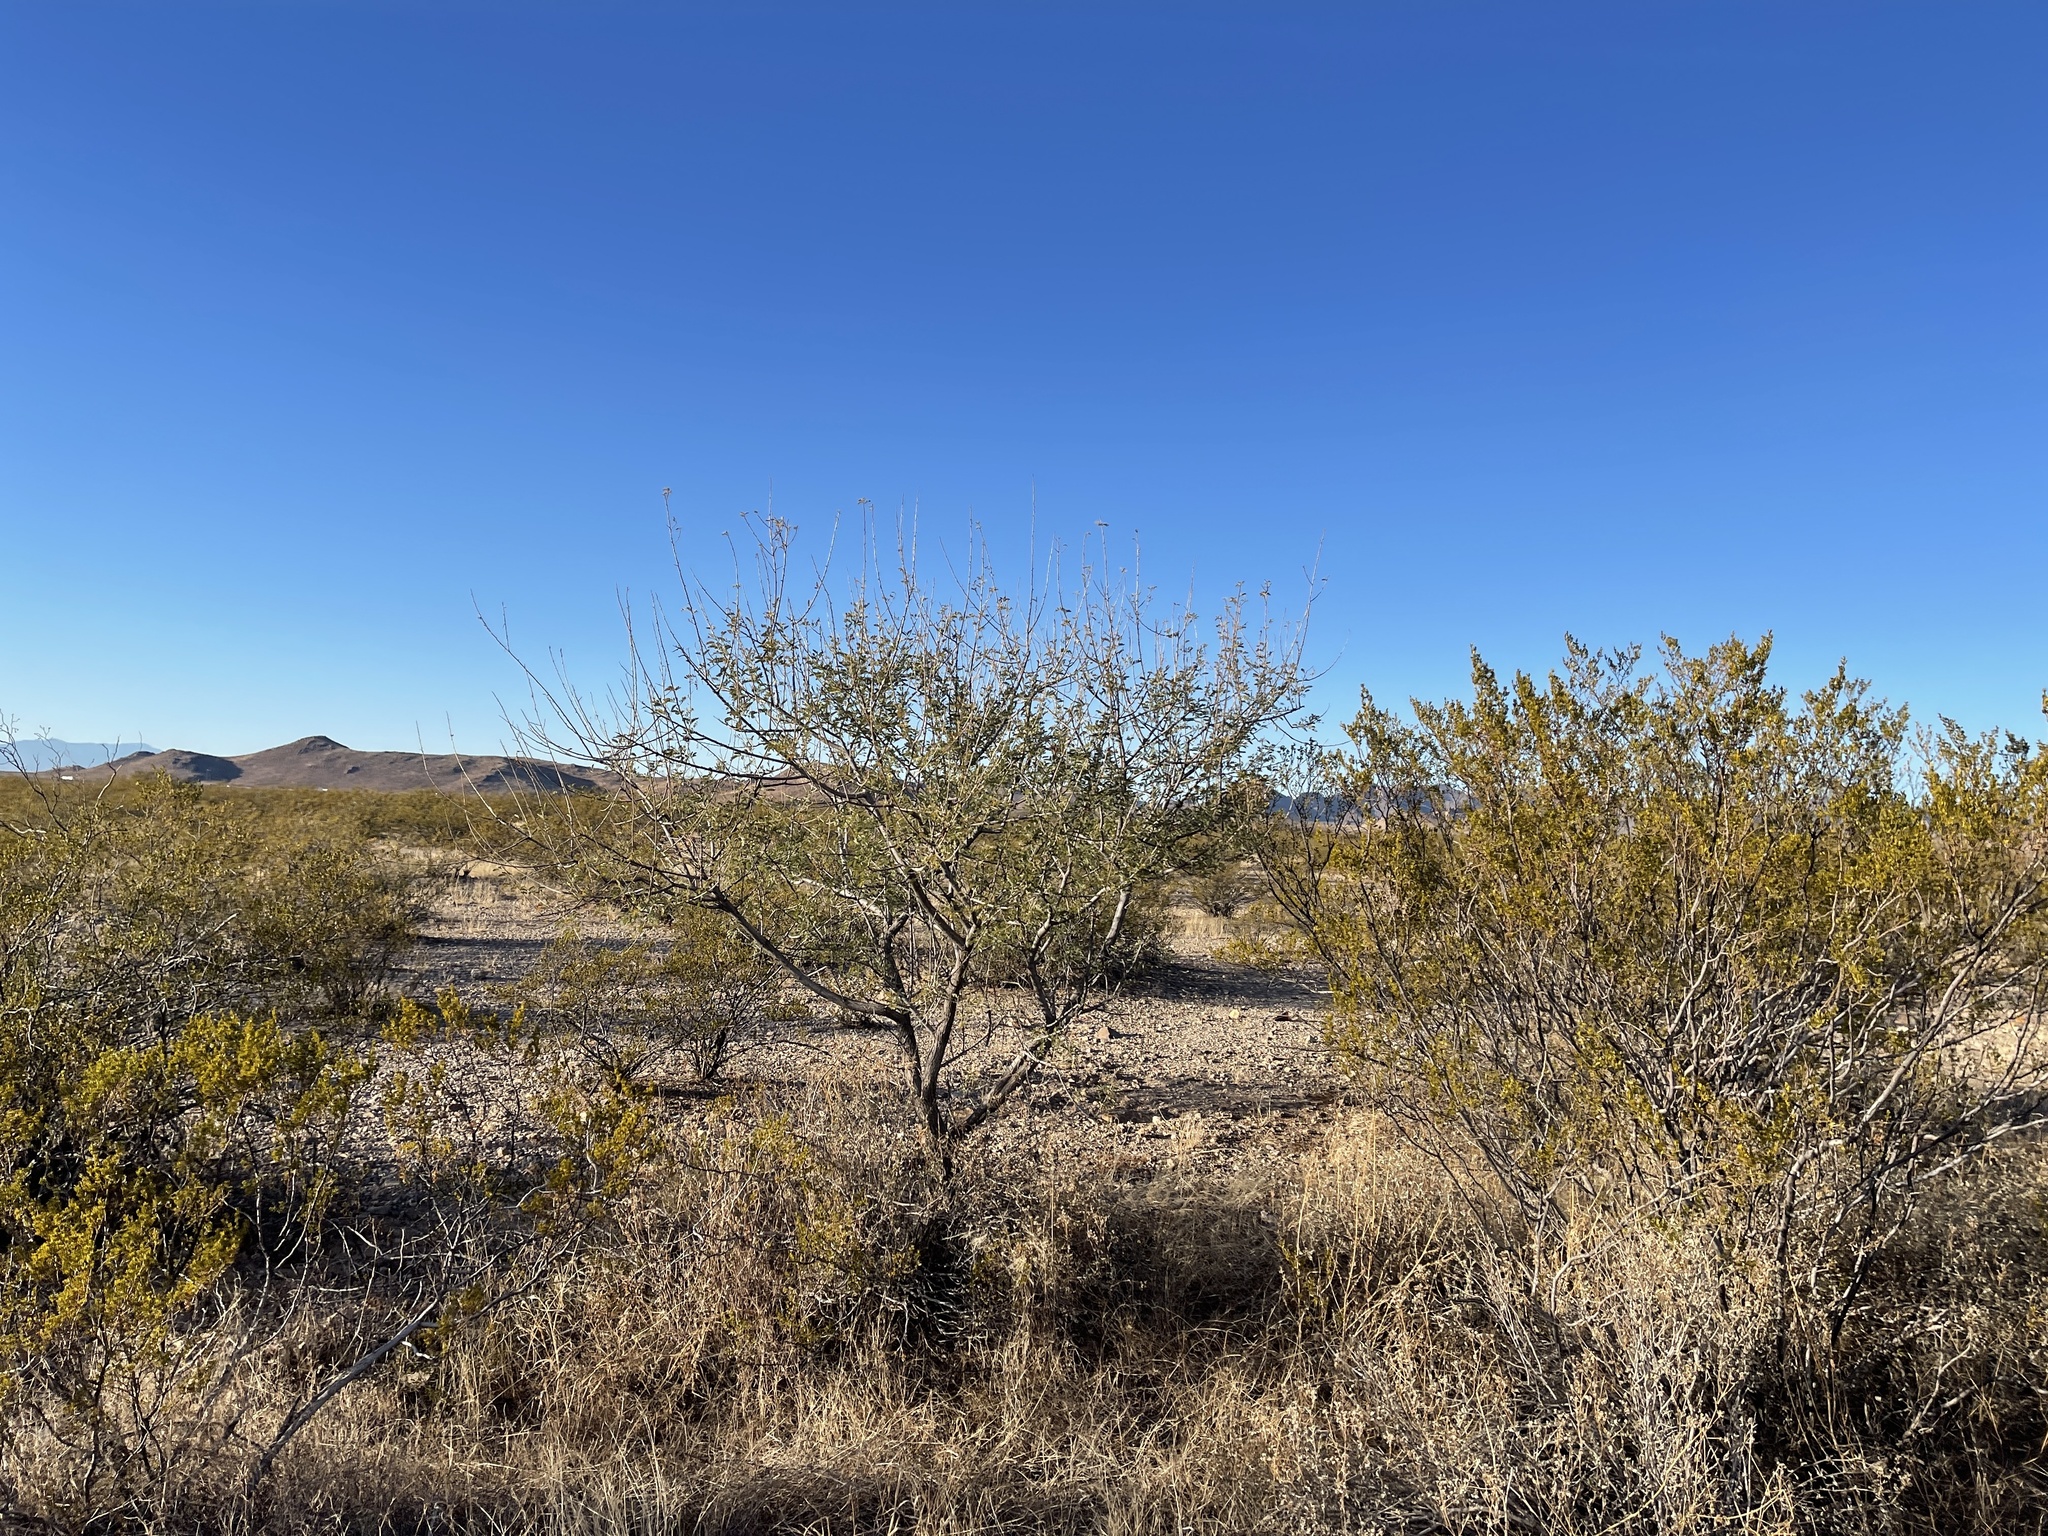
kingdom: Plantae
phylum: Tracheophyta
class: Magnoliopsida
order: Fabales
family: Fabaceae
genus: Mimosa
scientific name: Mimosa aculeaticarpa
